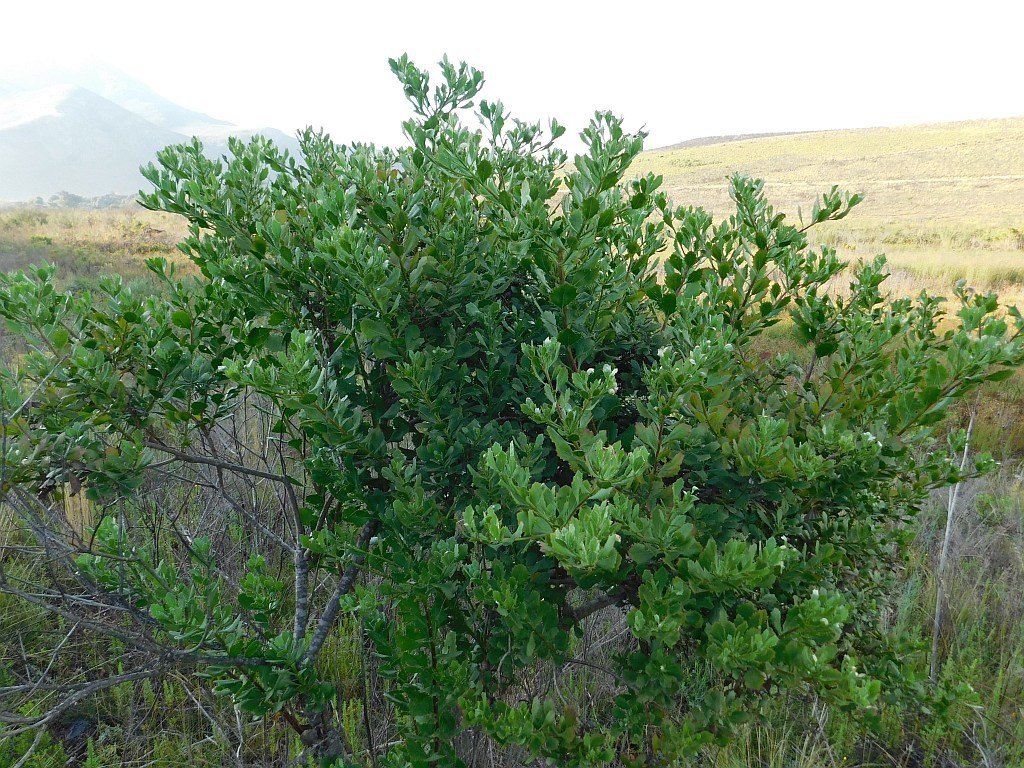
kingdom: Plantae
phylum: Tracheophyta
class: Magnoliopsida
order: Asterales
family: Asteraceae
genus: Osteospermum
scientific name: Osteospermum moniliferum
